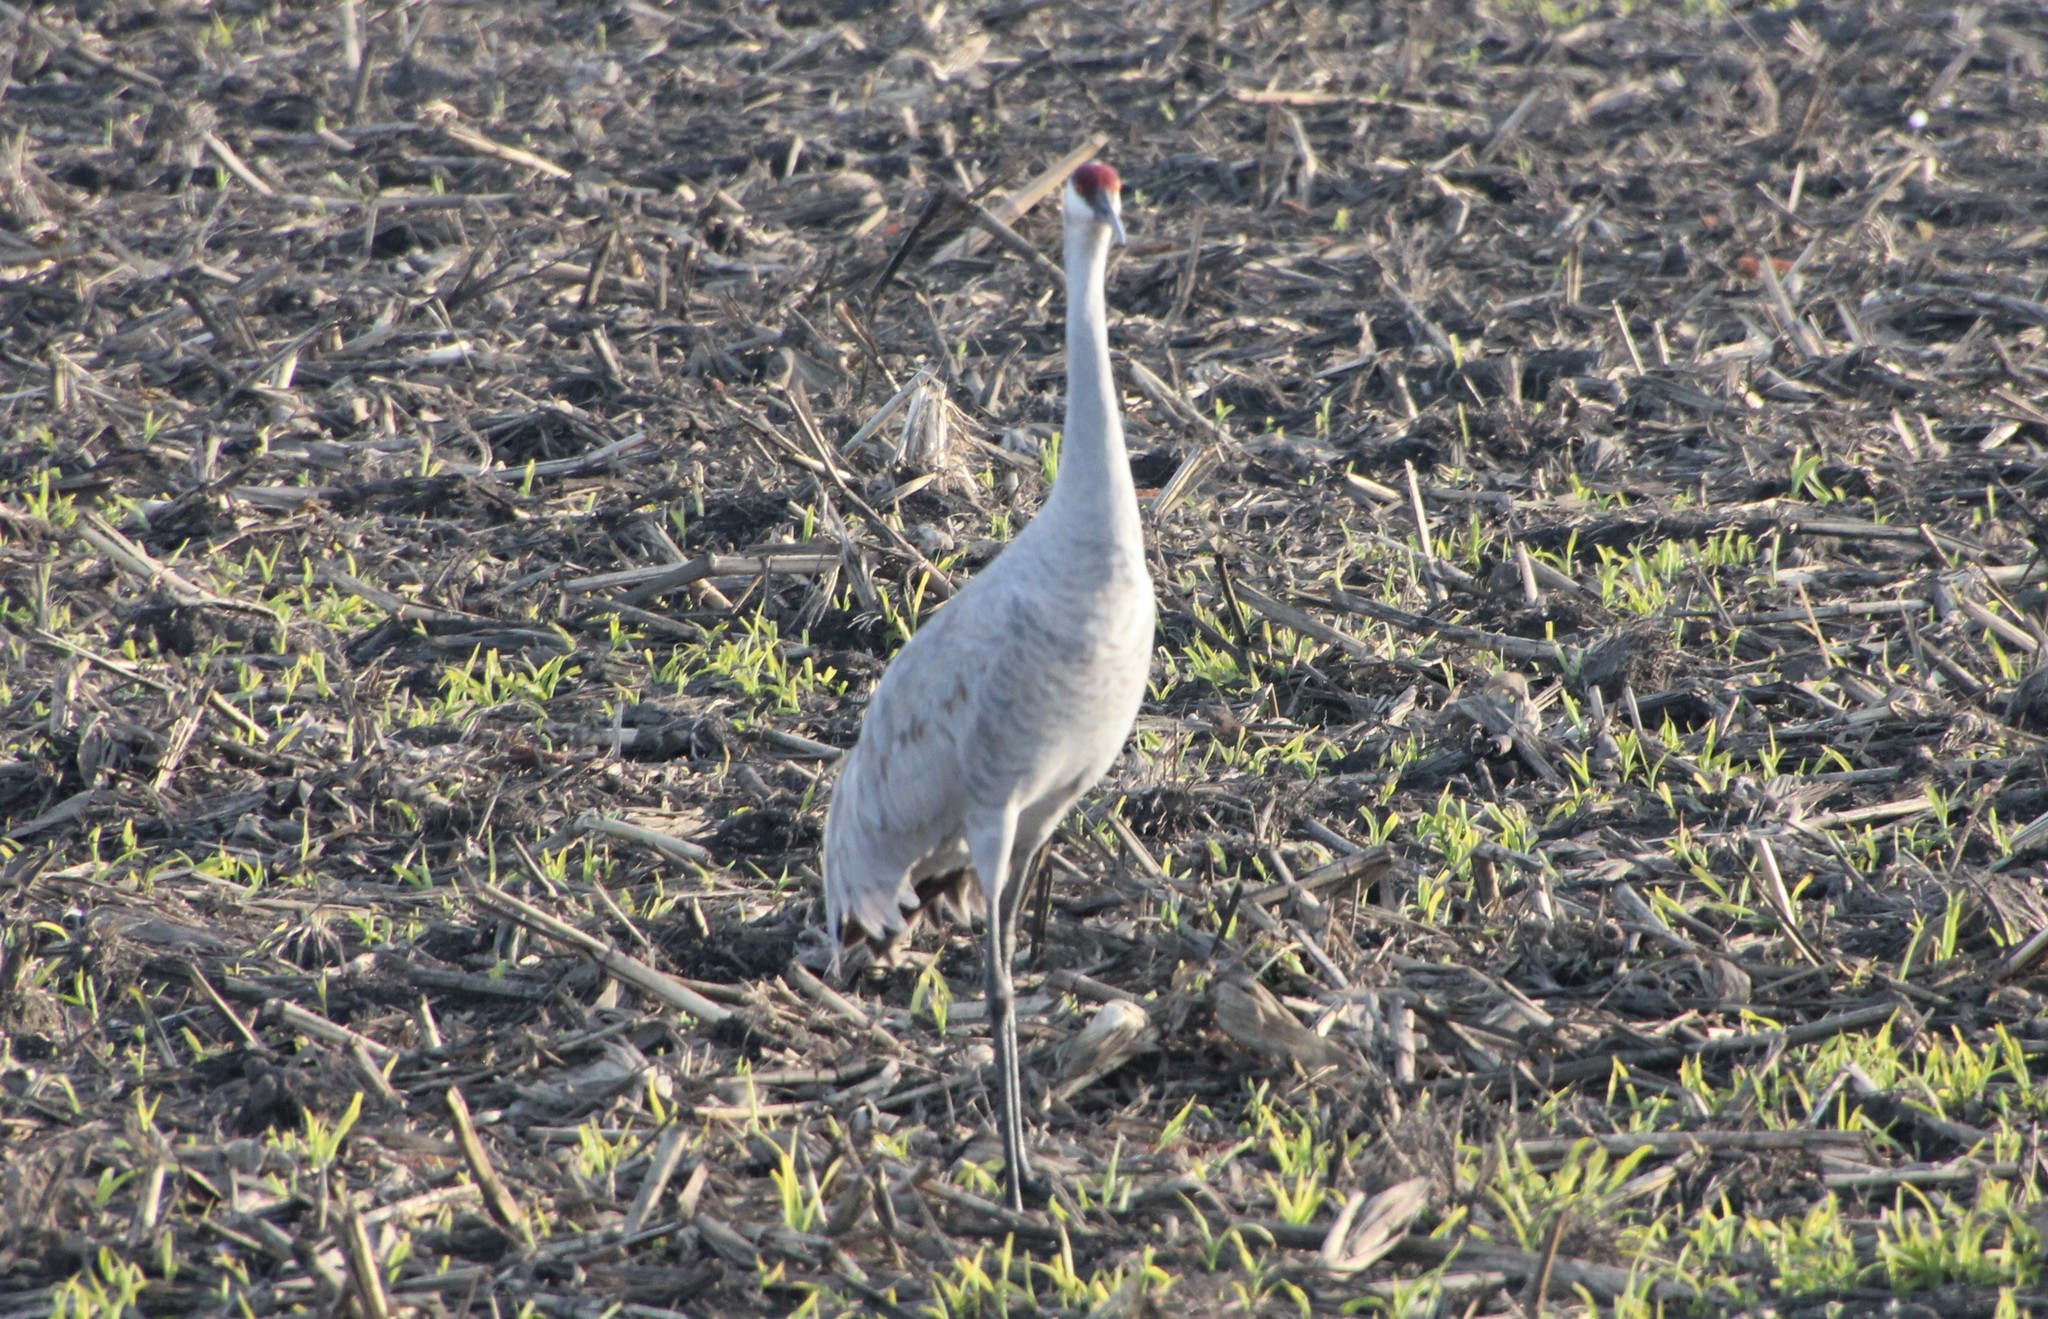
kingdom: Animalia
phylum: Chordata
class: Aves
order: Gruiformes
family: Gruidae
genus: Grus
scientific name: Grus canadensis
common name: Sandhill crane
